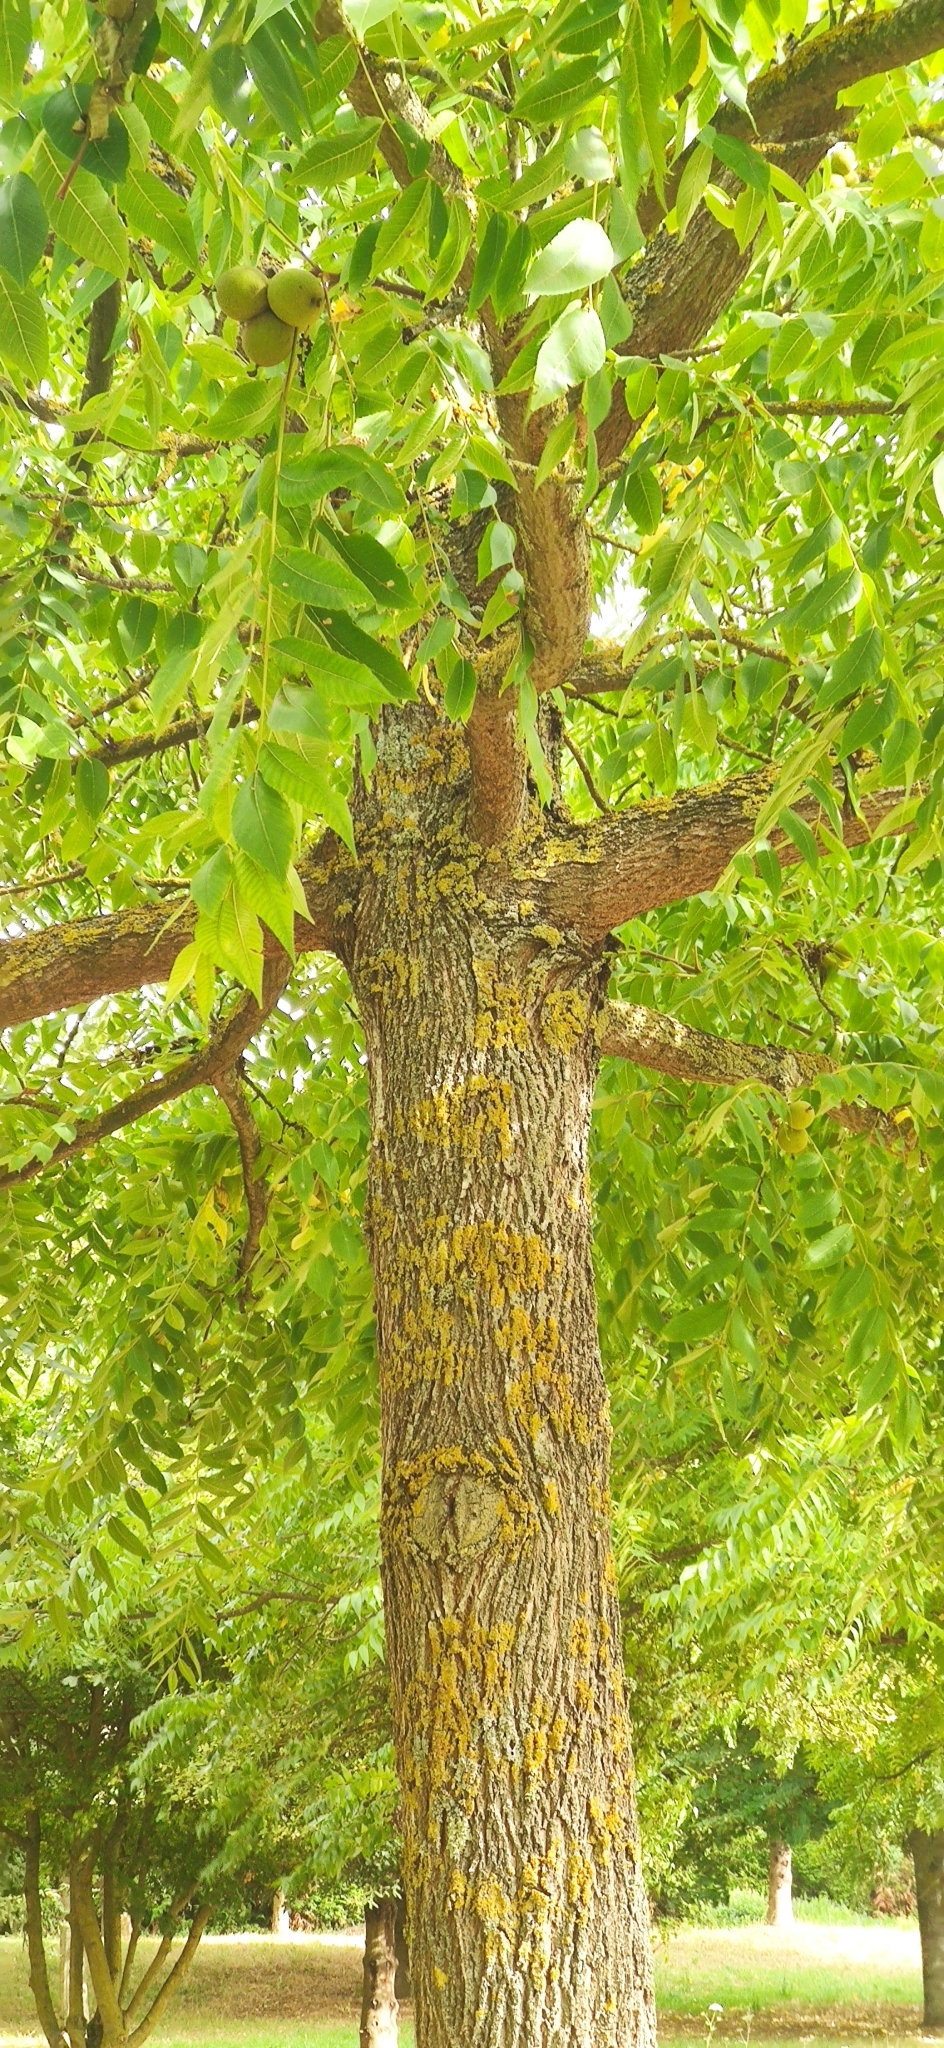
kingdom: Plantae
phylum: Tracheophyta
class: Magnoliopsida
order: Fagales
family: Juglandaceae
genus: Juglans
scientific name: Juglans nigra
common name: Black walnut
